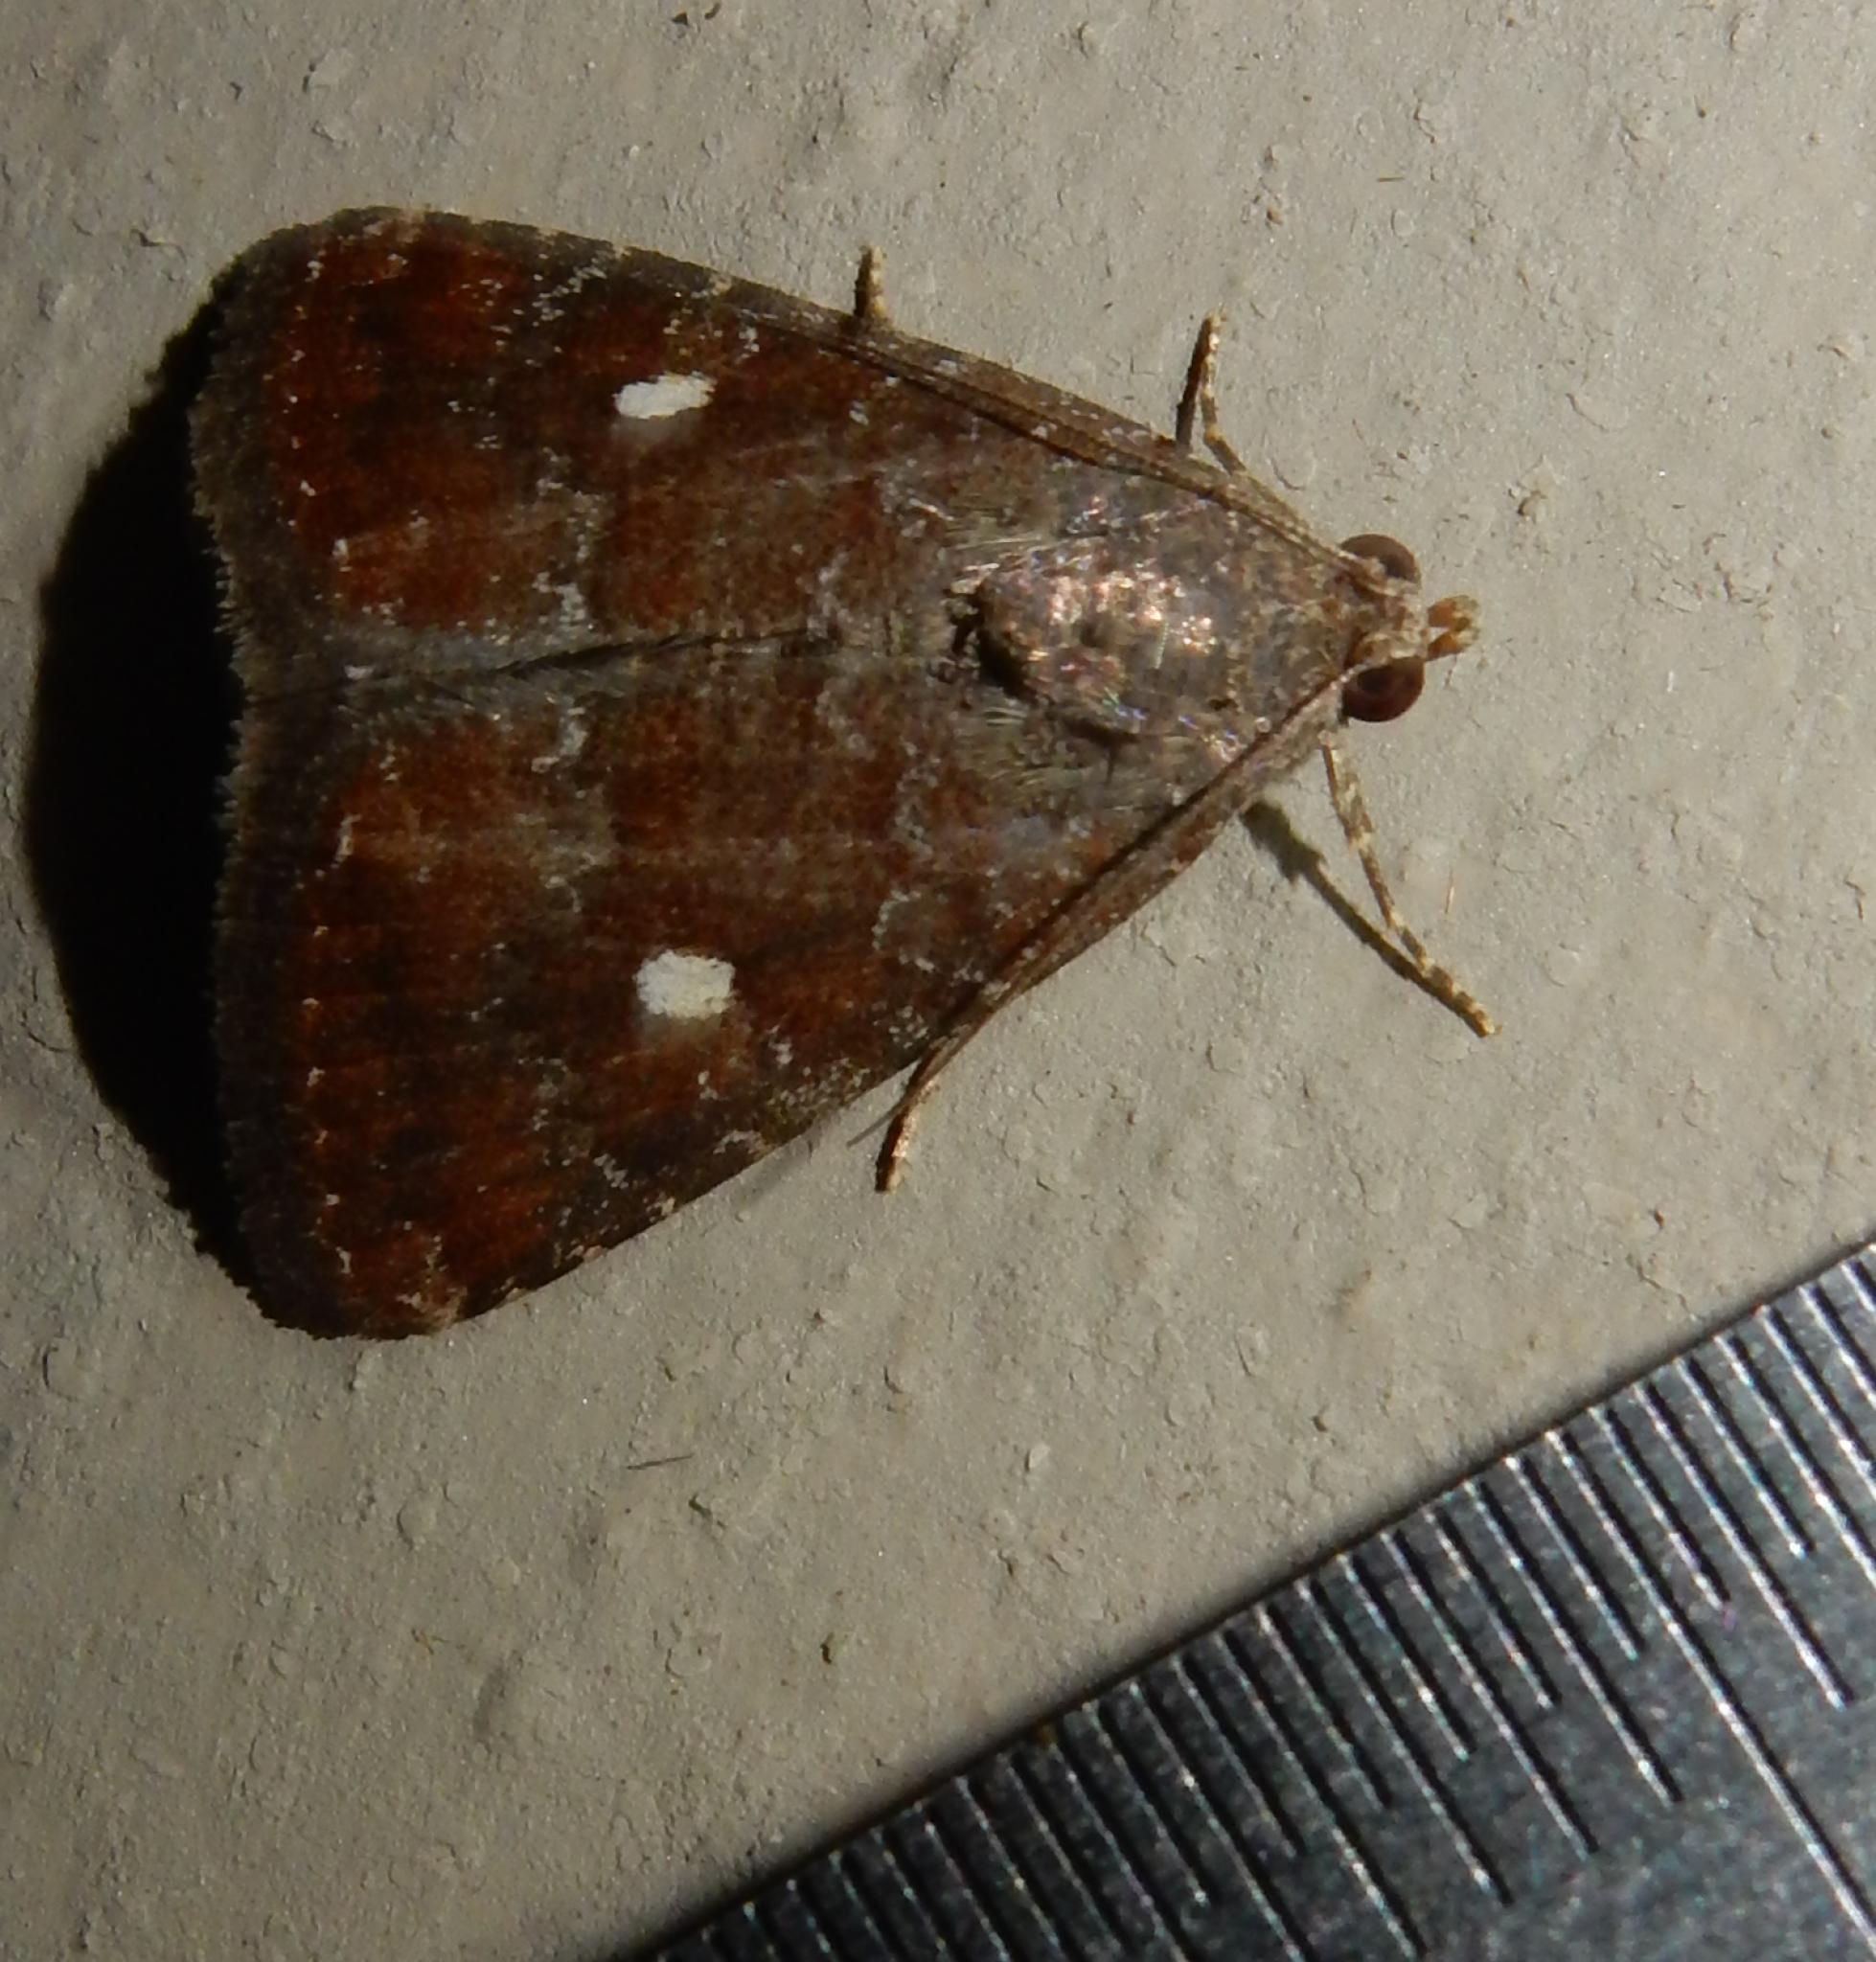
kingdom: Animalia
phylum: Arthropoda
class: Insecta
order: Lepidoptera
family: Noctuidae
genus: Amyna
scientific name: Amyna axis
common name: Cutworm
